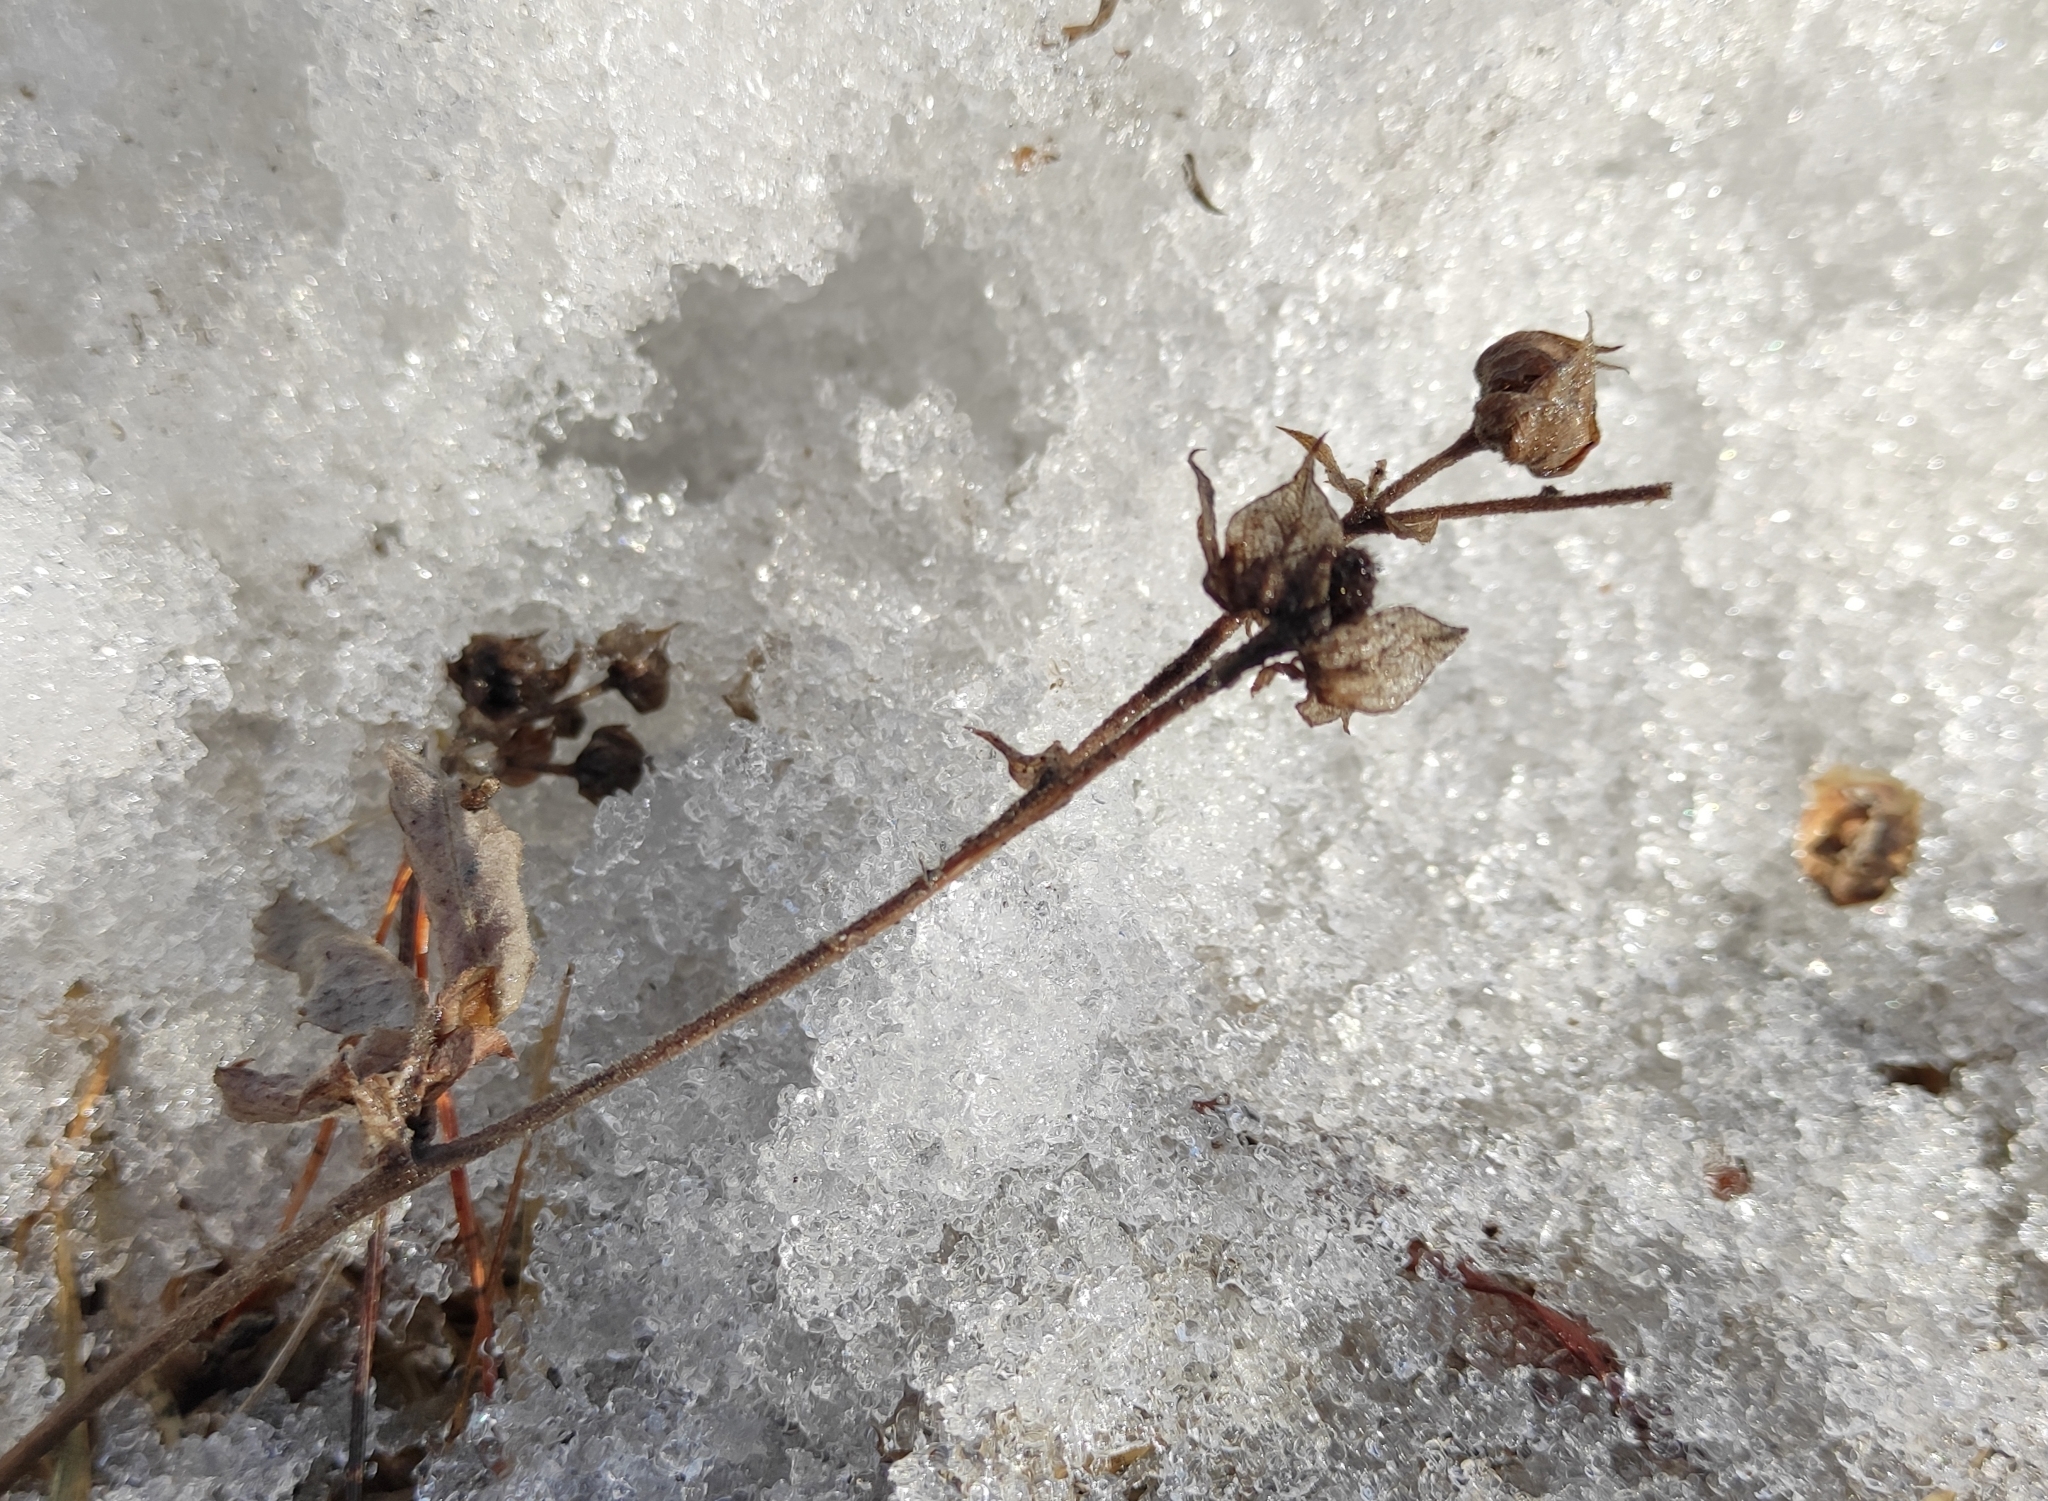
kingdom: Plantae
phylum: Tracheophyta
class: Magnoliopsida
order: Rosales
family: Rosaceae
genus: Comarum
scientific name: Comarum palustre
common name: Marsh cinquefoil
